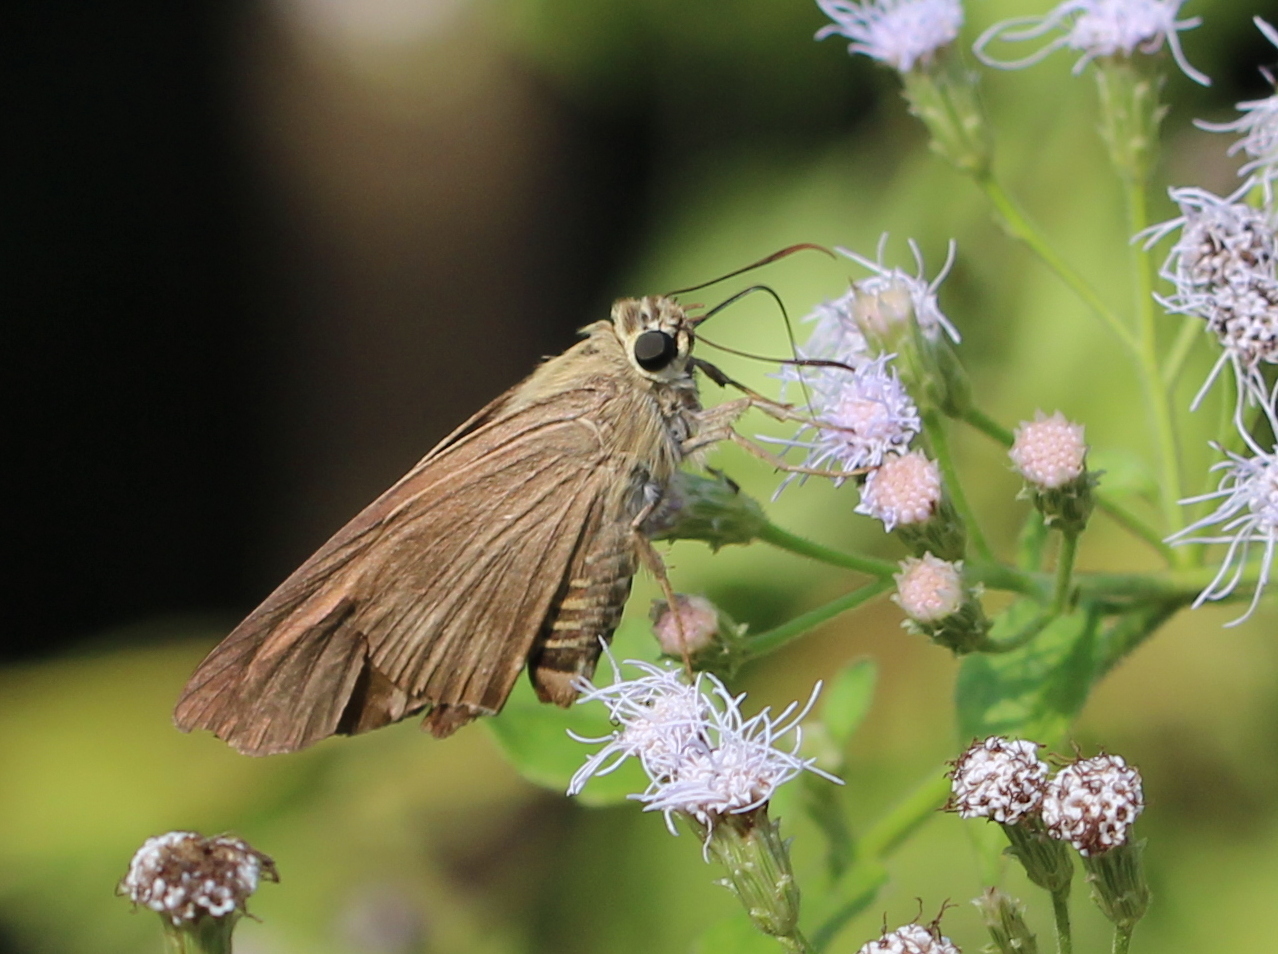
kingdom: Animalia
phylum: Arthropoda
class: Insecta
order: Lepidoptera
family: Hesperiidae
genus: Badamia
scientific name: Badamia exclamationis
